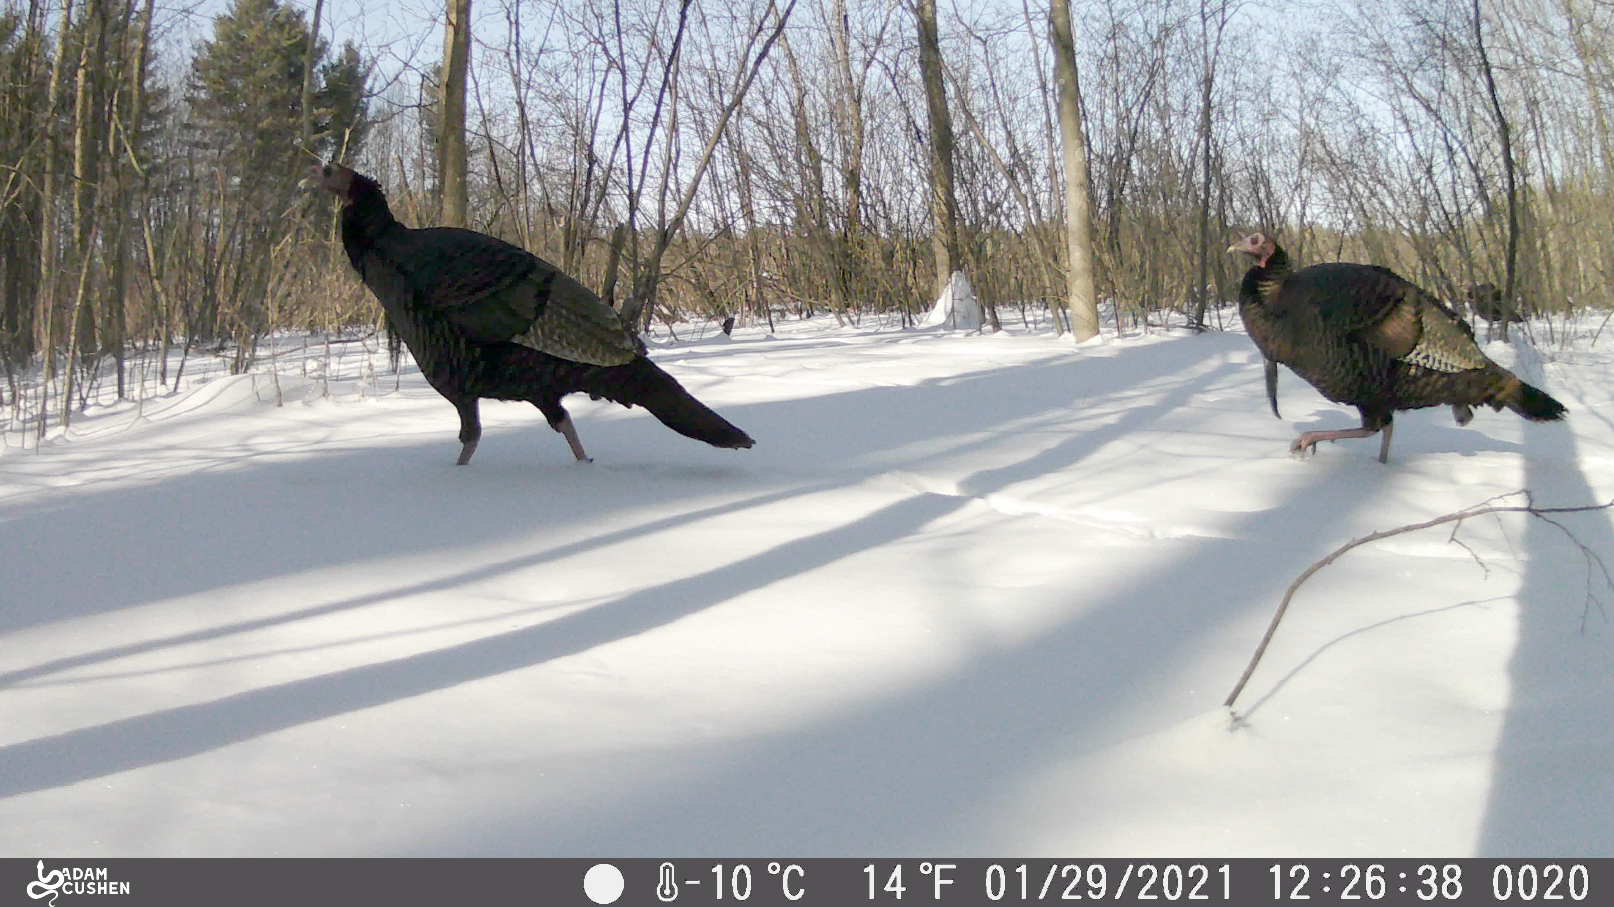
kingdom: Animalia
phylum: Chordata
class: Aves
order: Galliformes
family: Phasianidae
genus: Meleagris
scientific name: Meleagris gallopavo
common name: Wild turkey
